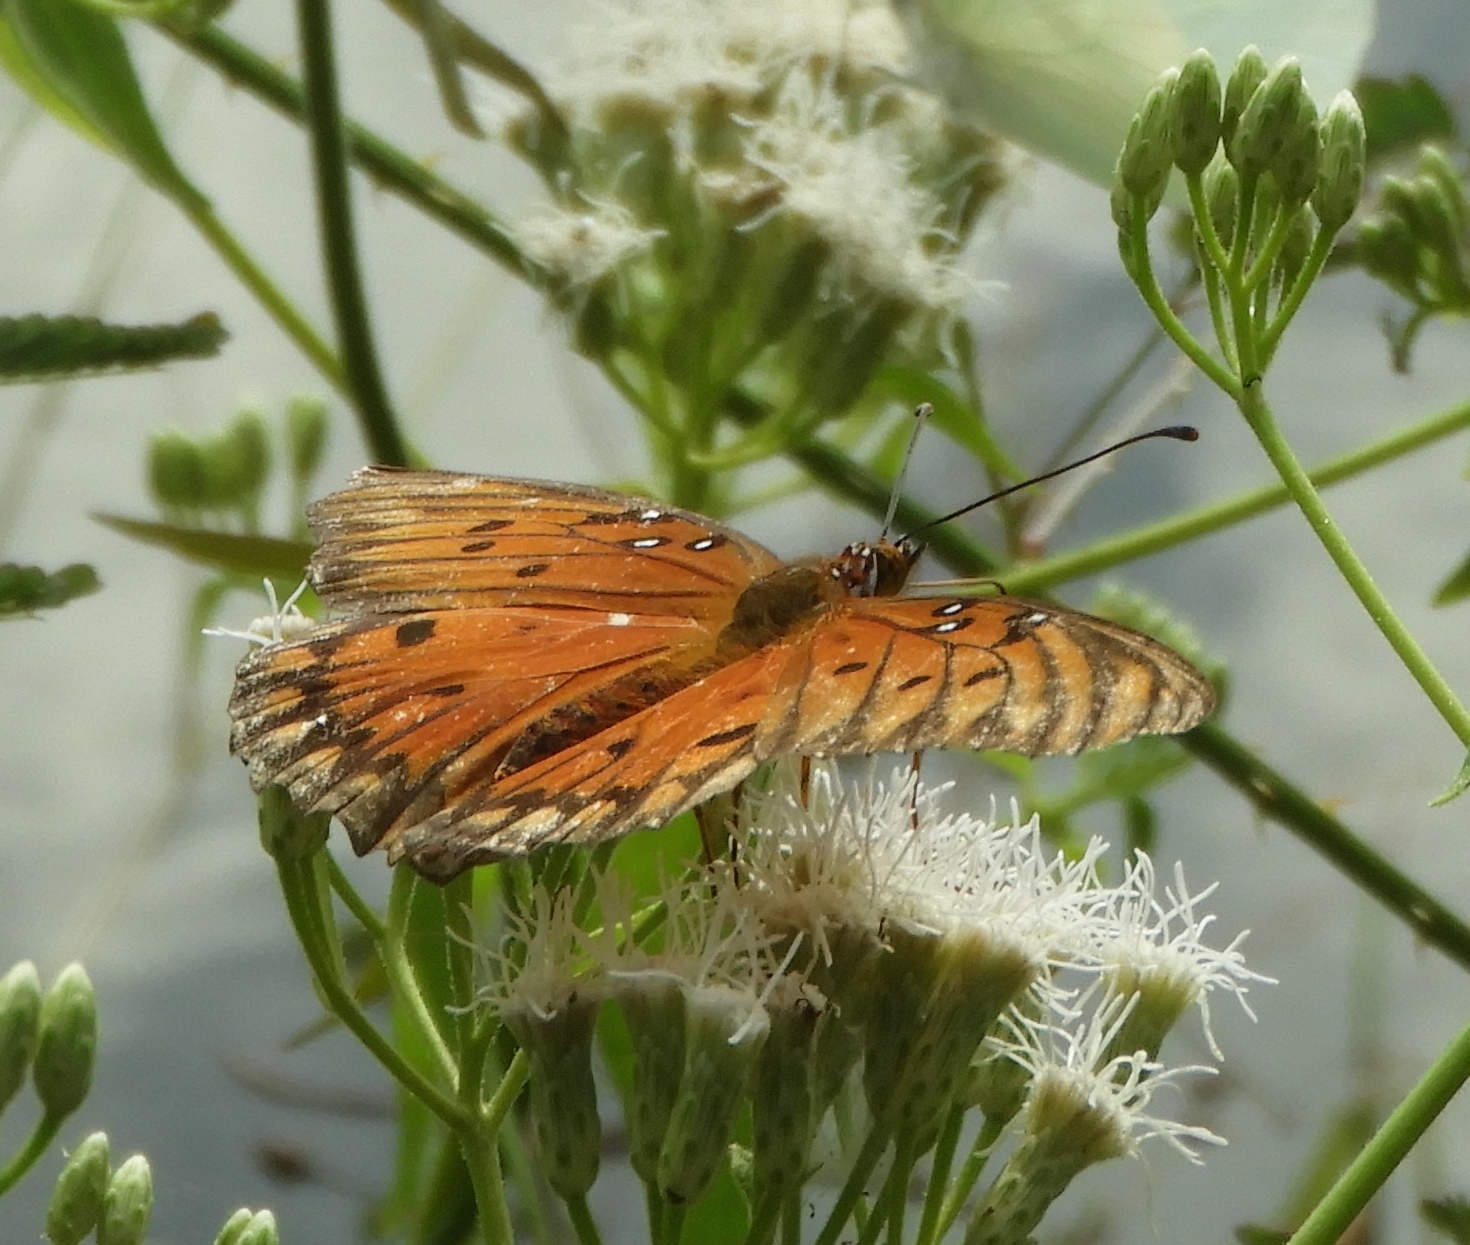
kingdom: Animalia
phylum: Arthropoda
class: Insecta
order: Lepidoptera
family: Nymphalidae
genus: Dione
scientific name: Dione vanillae
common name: Gulf fritillary
